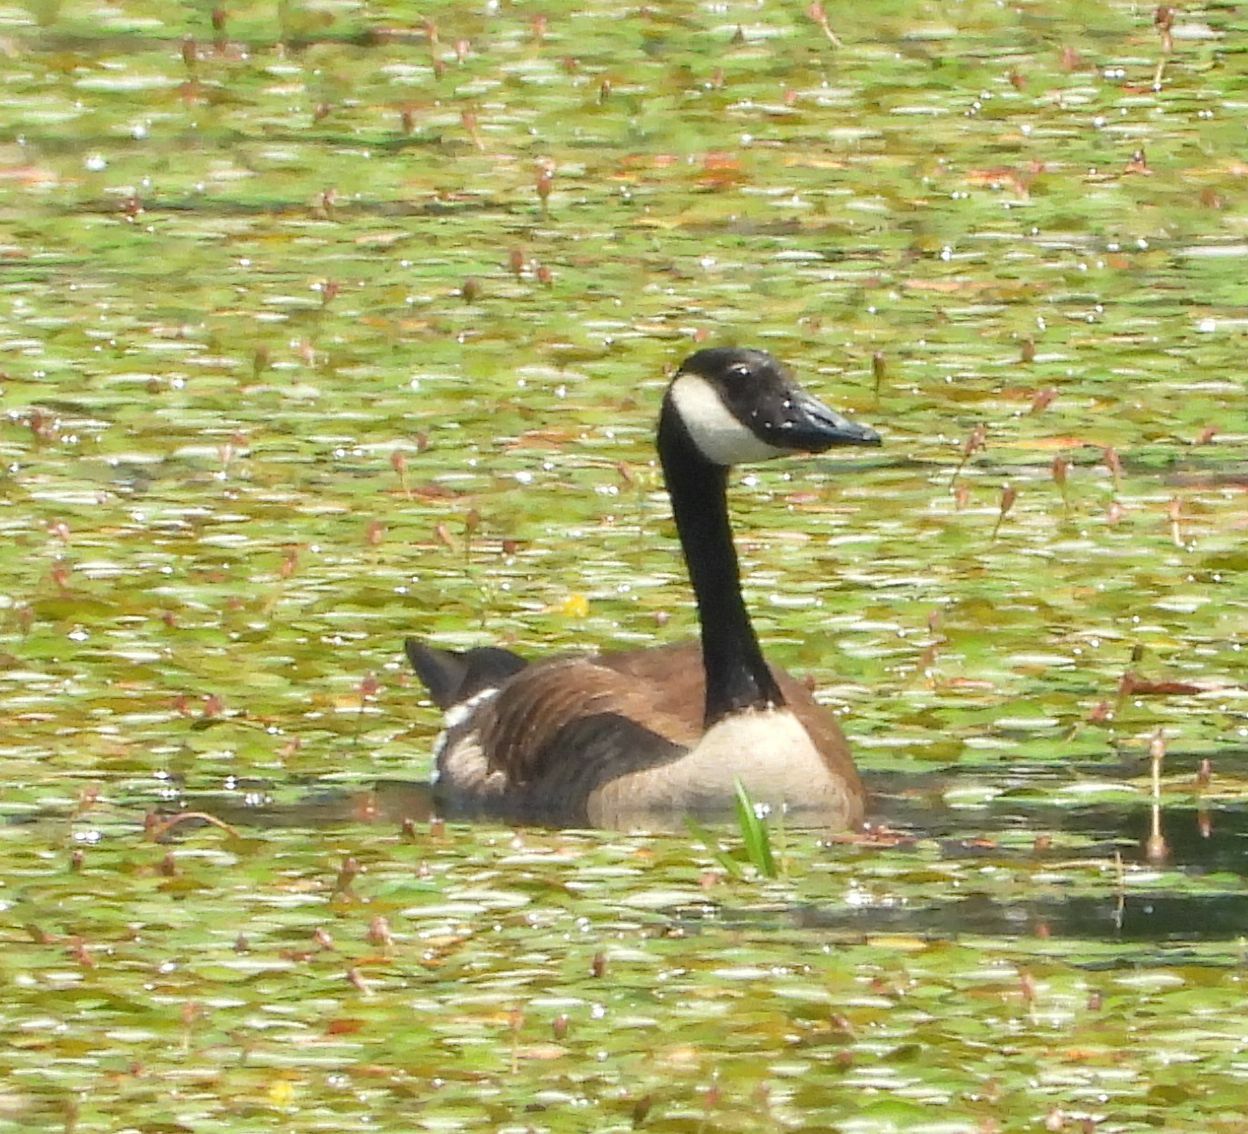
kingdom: Animalia
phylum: Chordata
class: Aves
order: Anseriformes
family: Anatidae
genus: Branta
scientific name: Branta canadensis
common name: Canada goose
